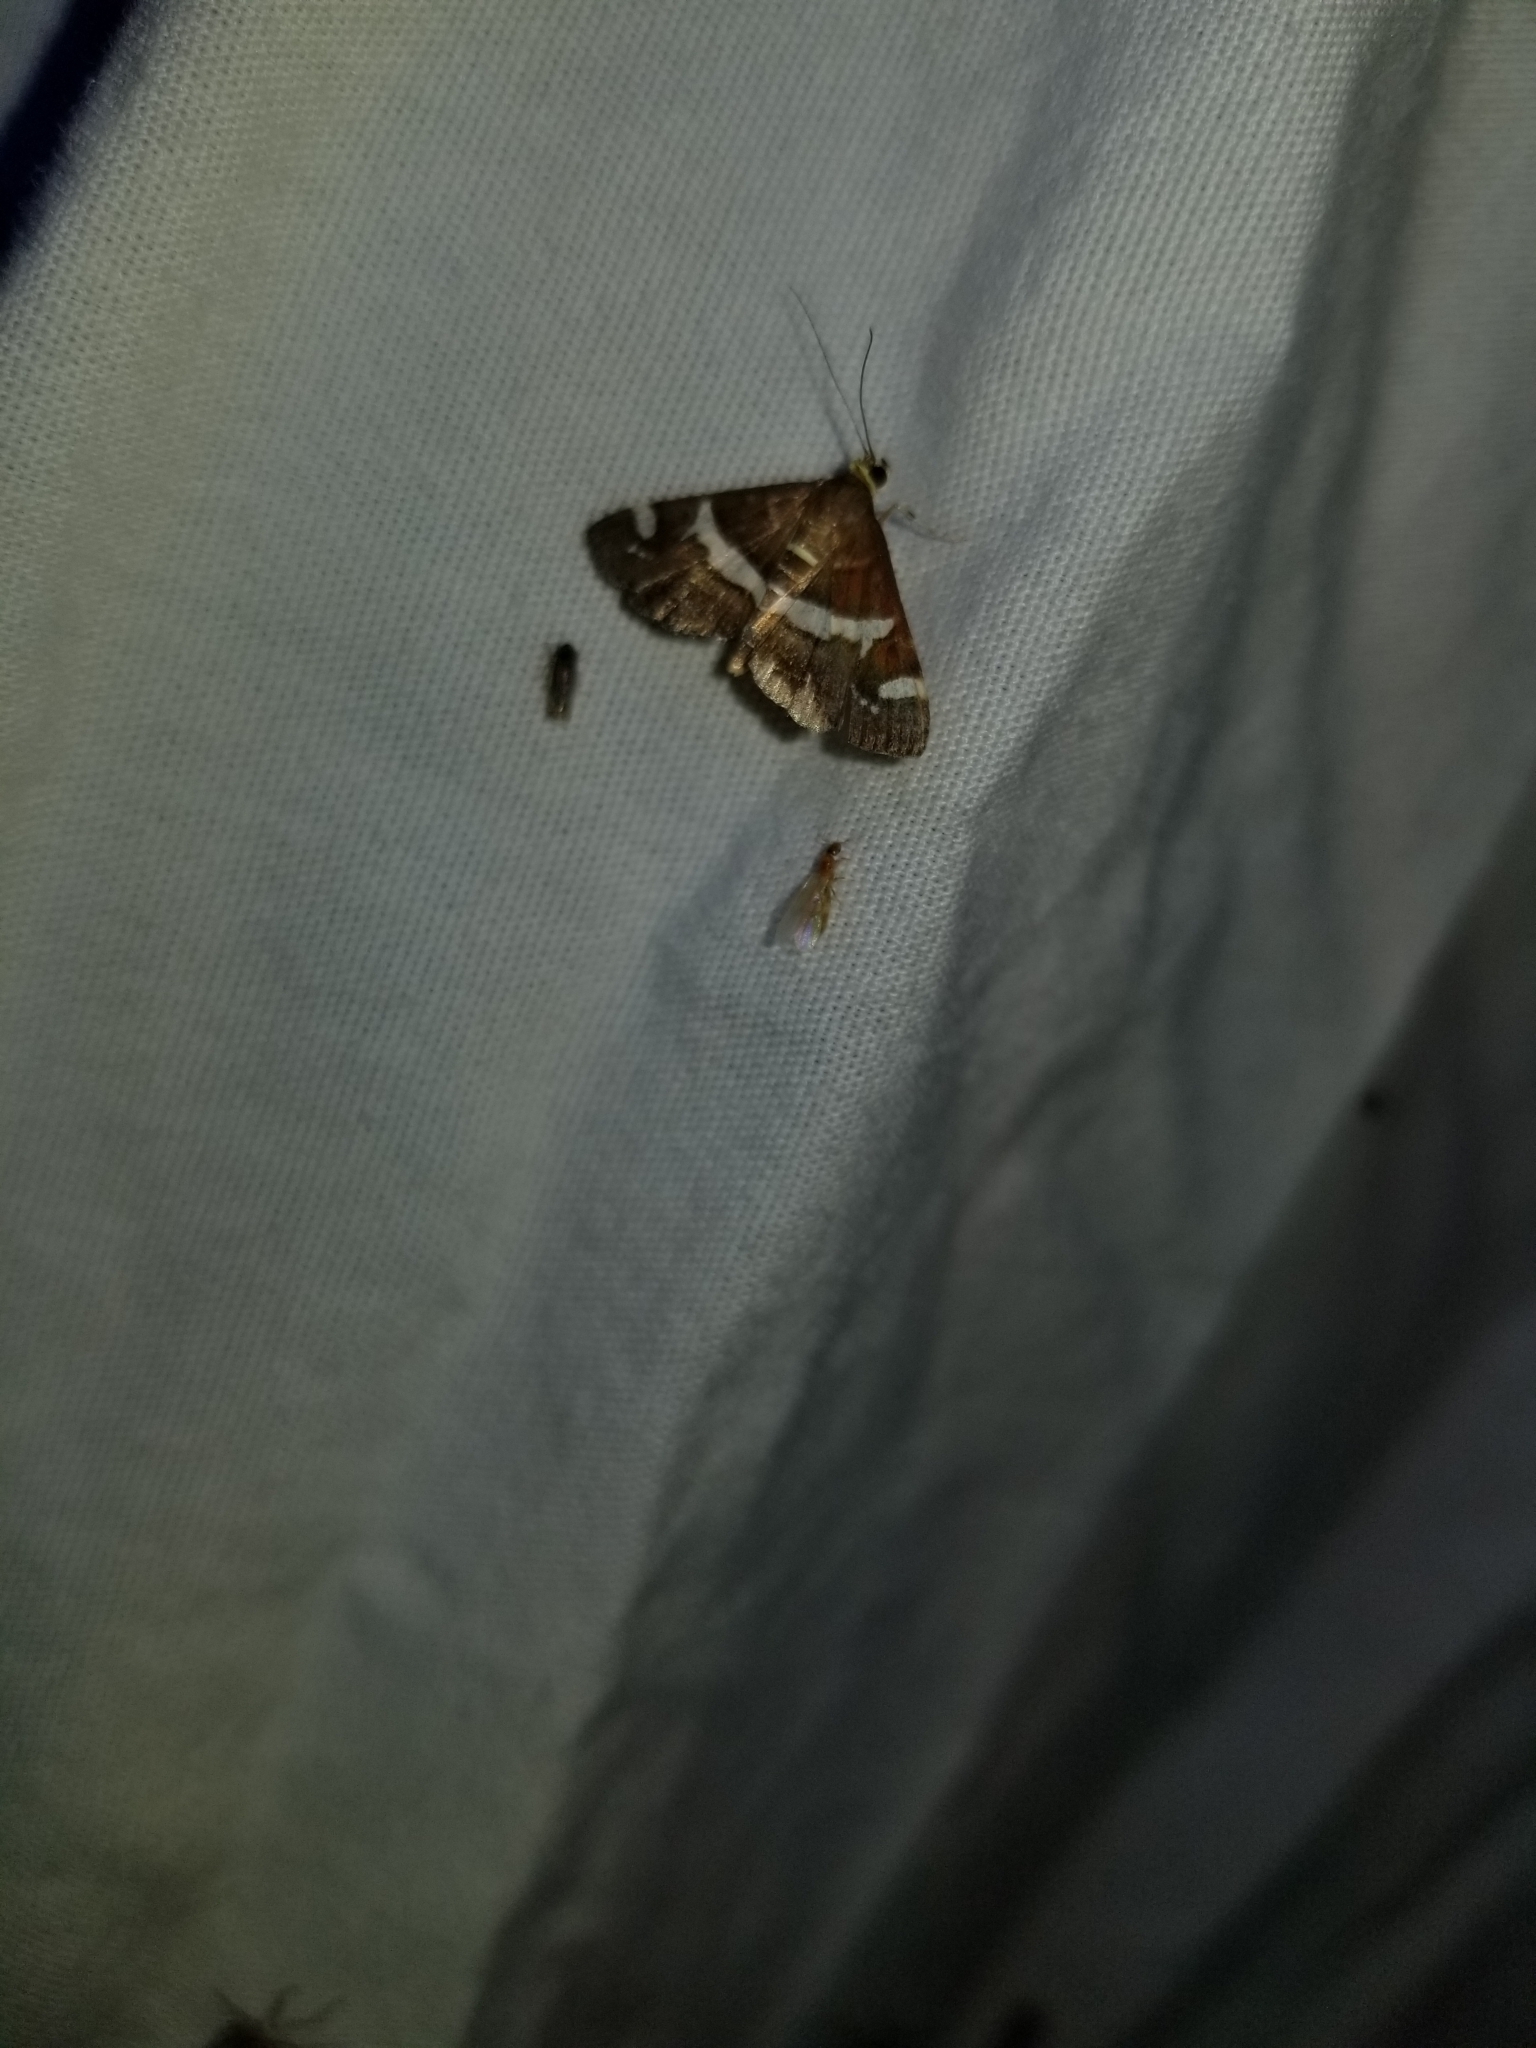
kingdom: Animalia
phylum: Arthropoda
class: Insecta
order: Lepidoptera
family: Crambidae
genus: Spoladea
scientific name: Spoladea recurvalis
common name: Beet webworm moth
